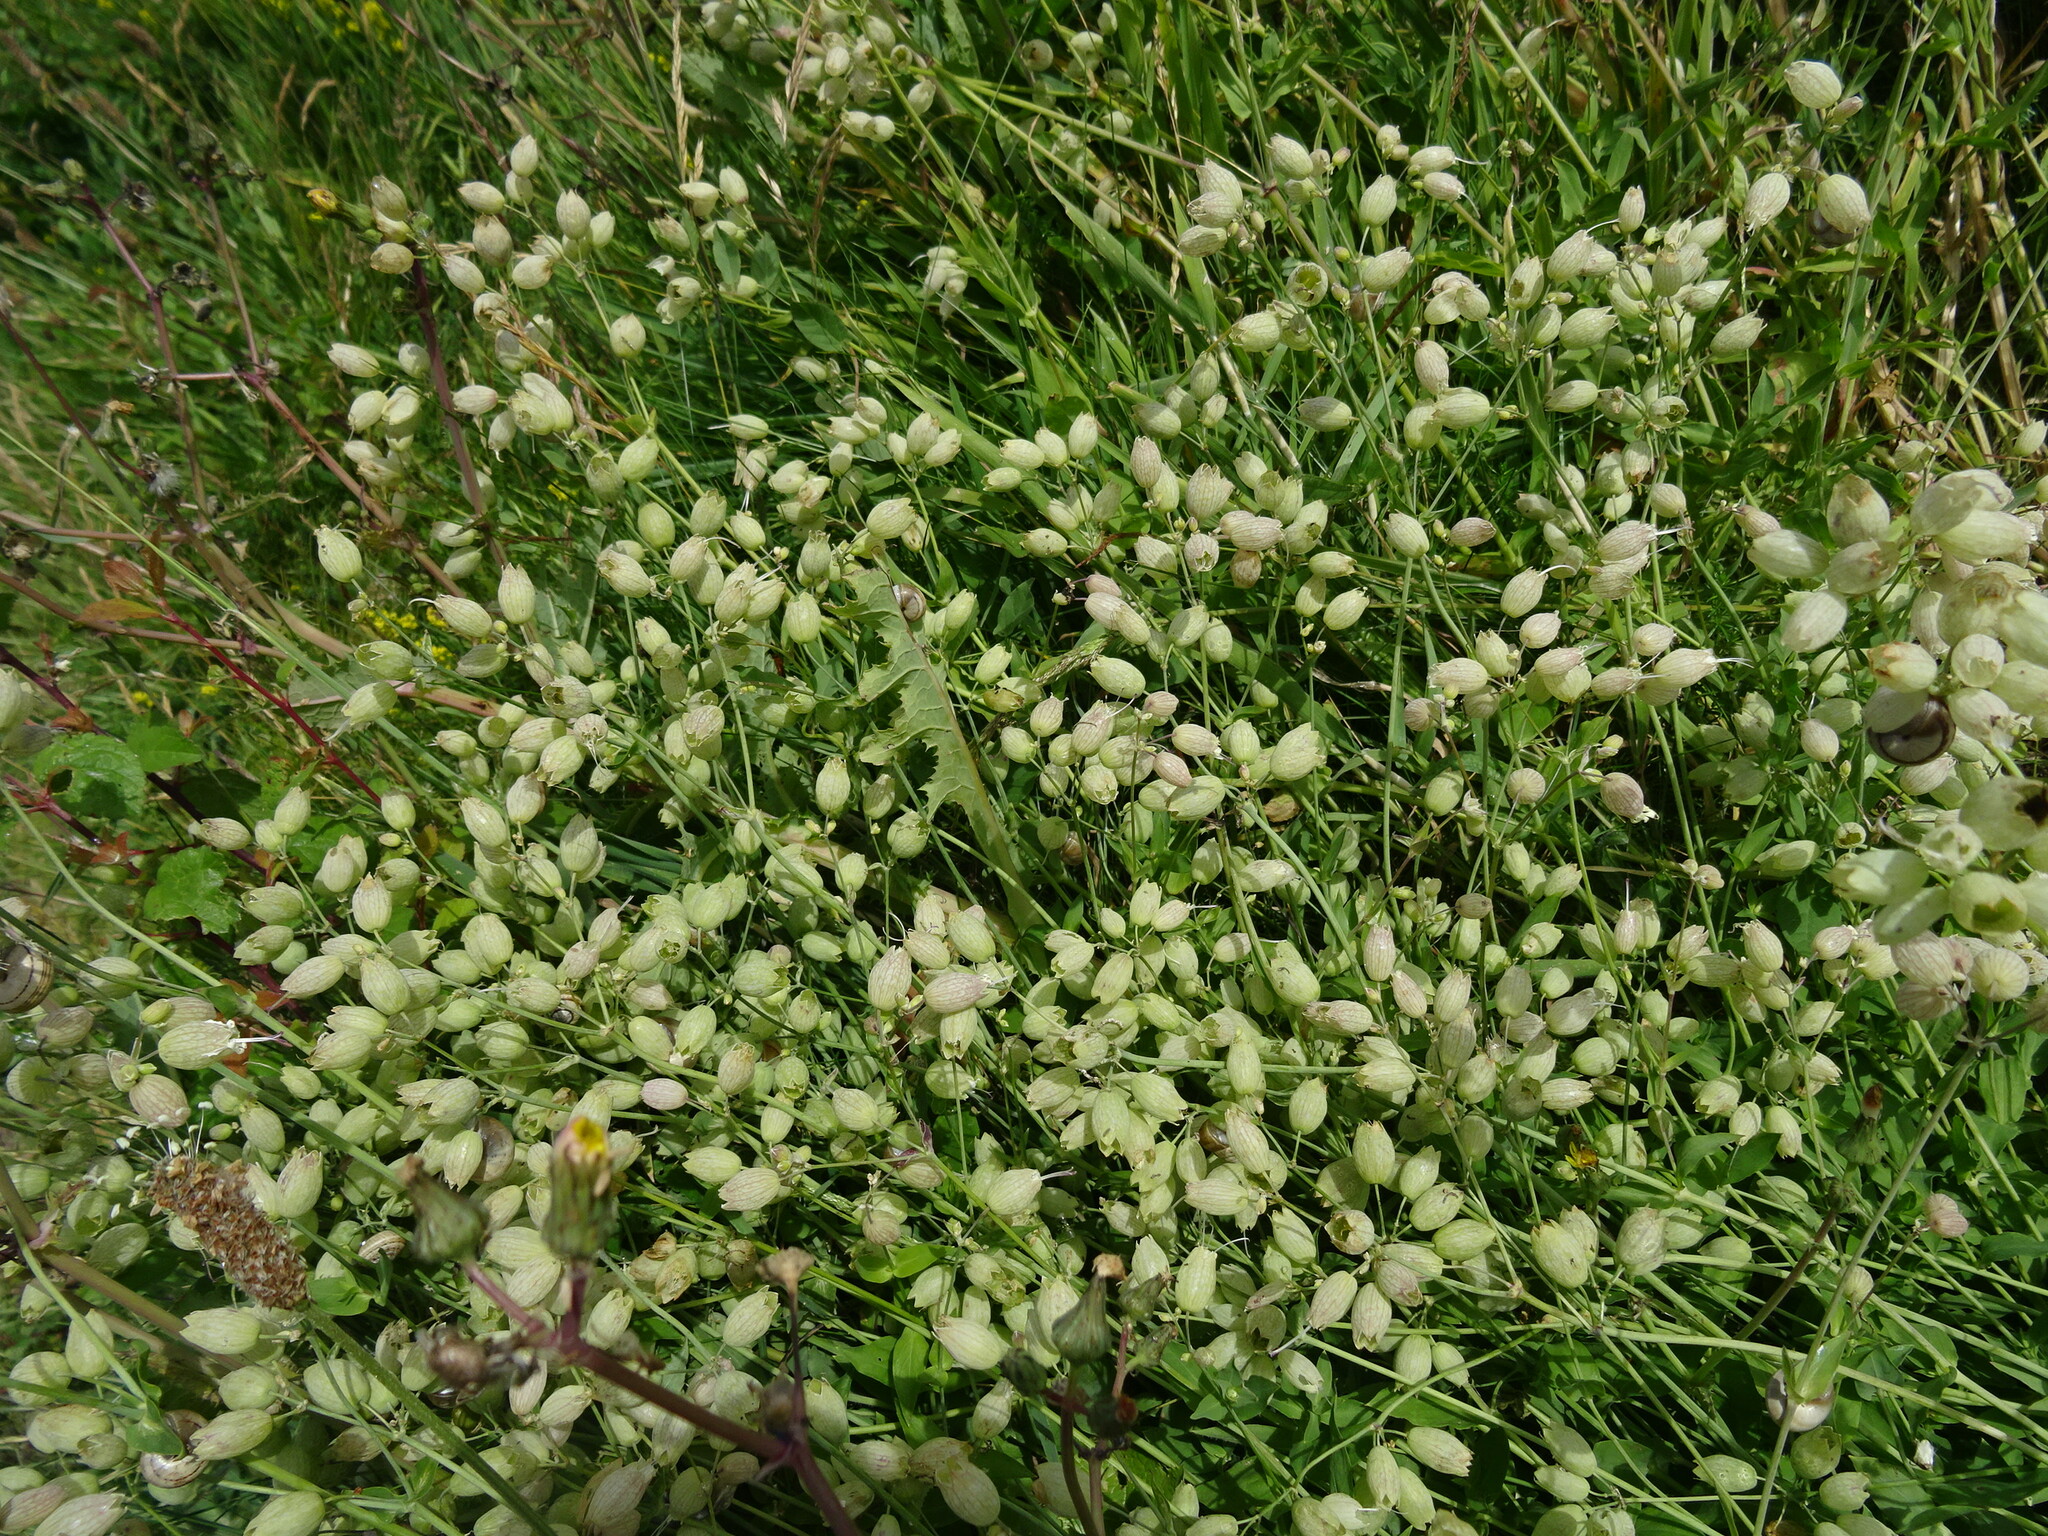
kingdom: Plantae
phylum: Tracheophyta
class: Magnoliopsida
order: Caryophyllales
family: Caryophyllaceae
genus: Silene
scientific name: Silene vulgaris
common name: Bladder campion
